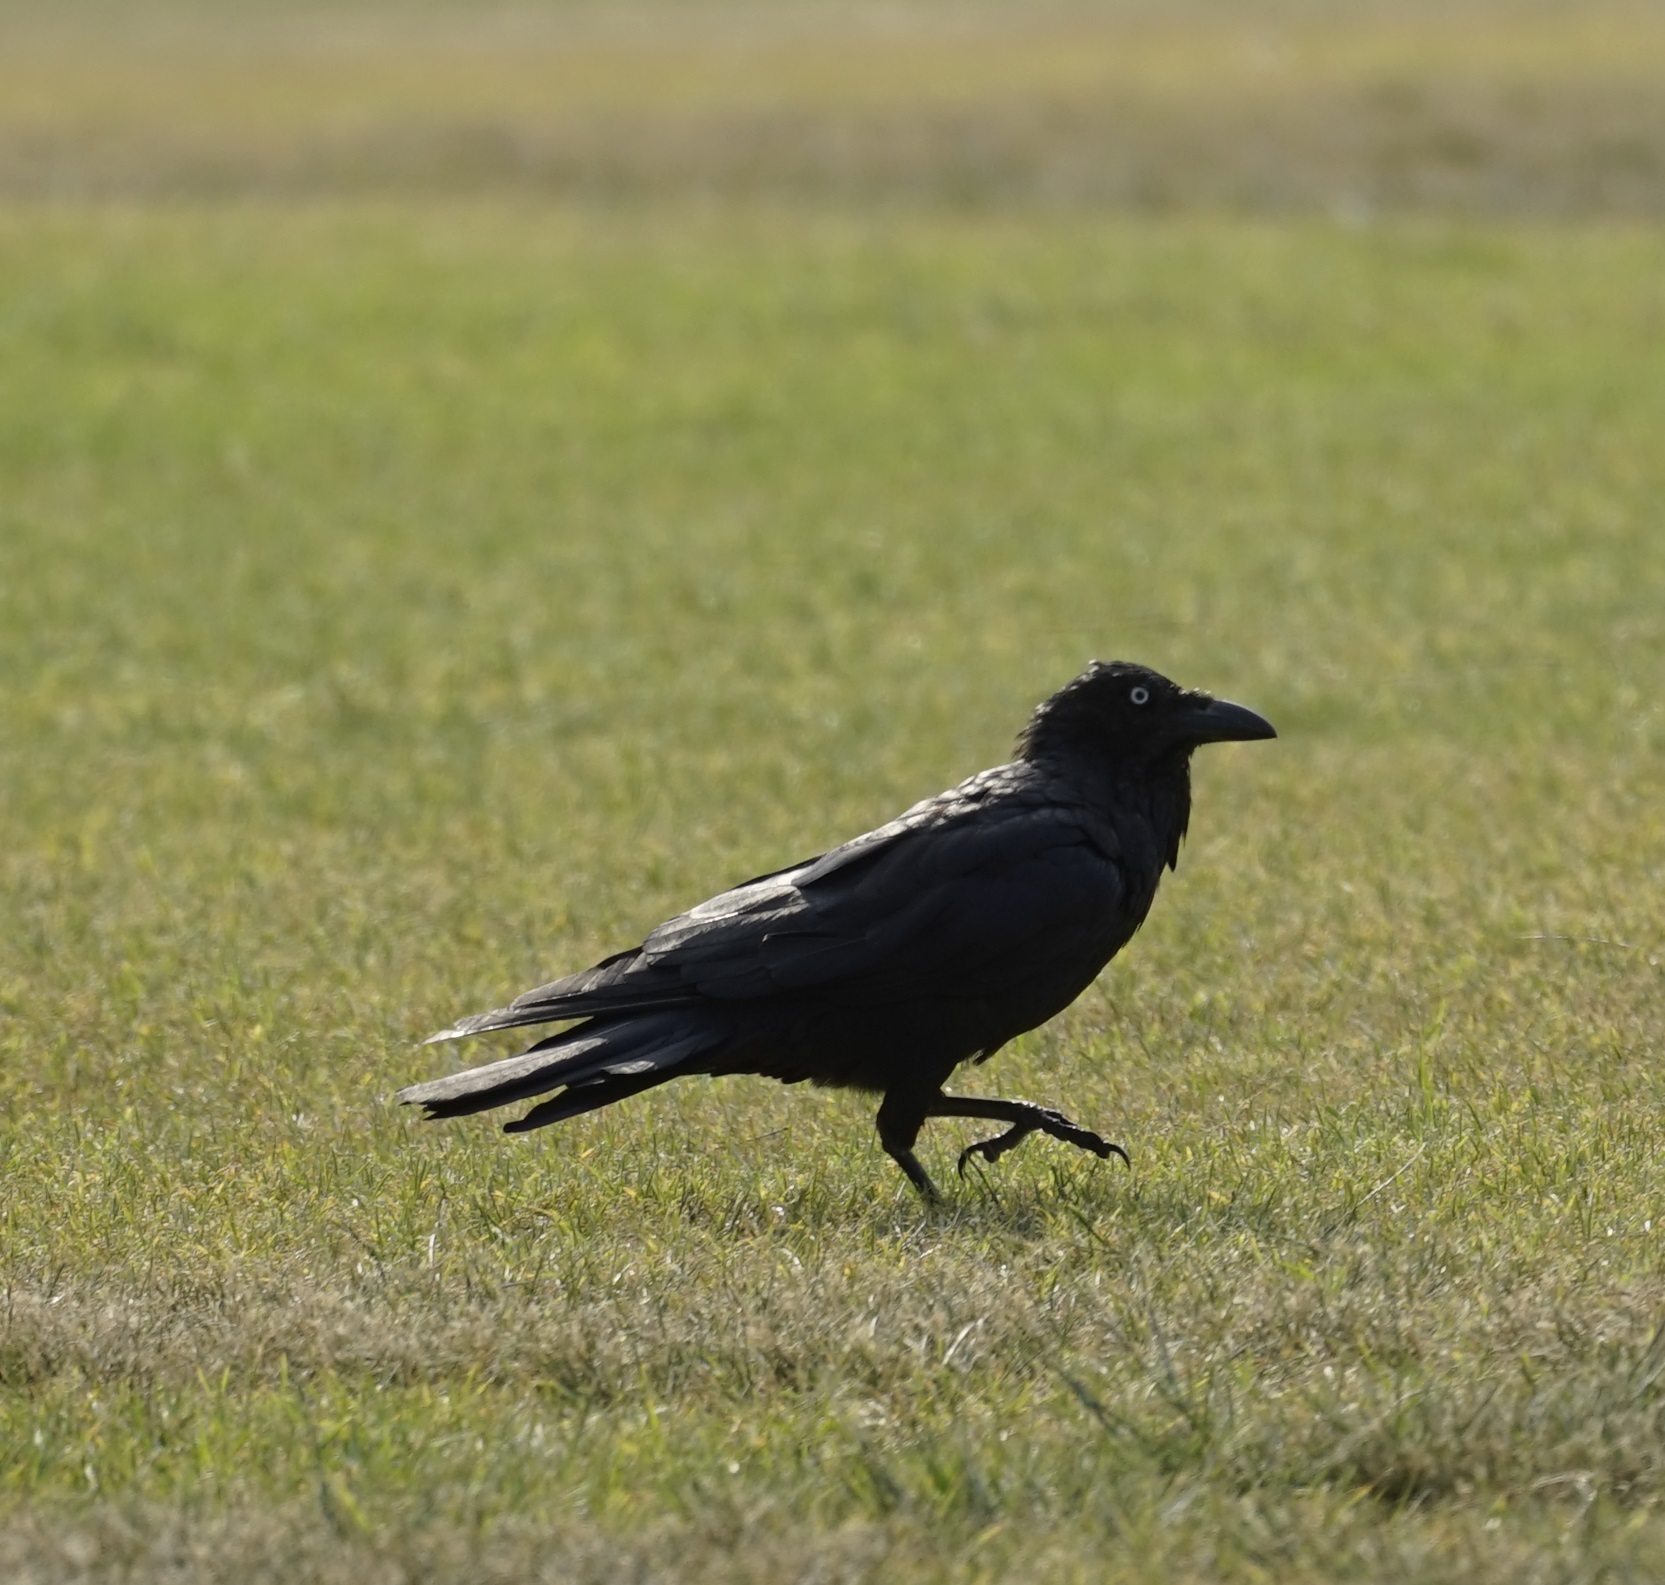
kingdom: Animalia
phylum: Chordata
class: Aves
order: Passeriformes
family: Corvidae
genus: Corvus
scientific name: Corvus coronoides
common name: Australian raven
